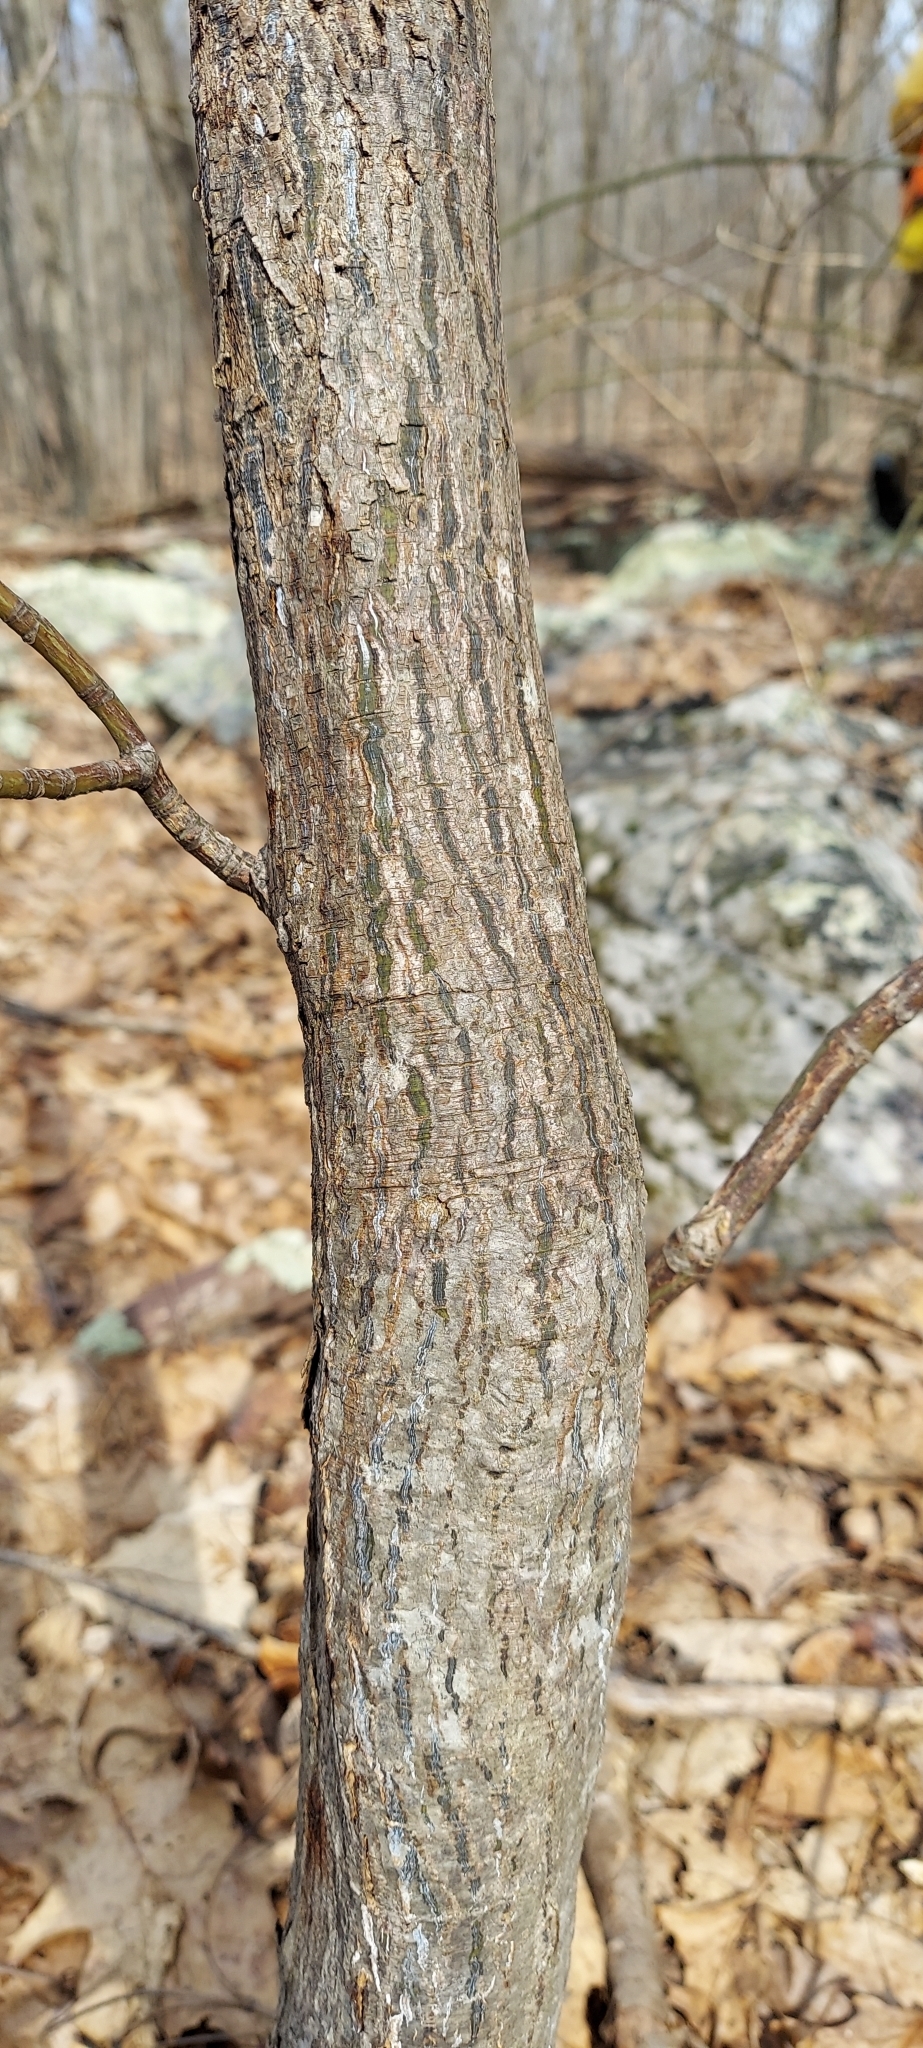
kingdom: Plantae
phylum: Tracheophyta
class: Magnoliopsida
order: Sapindales
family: Sapindaceae
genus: Acer
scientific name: Acer pensylvanicum
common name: Moosewood
